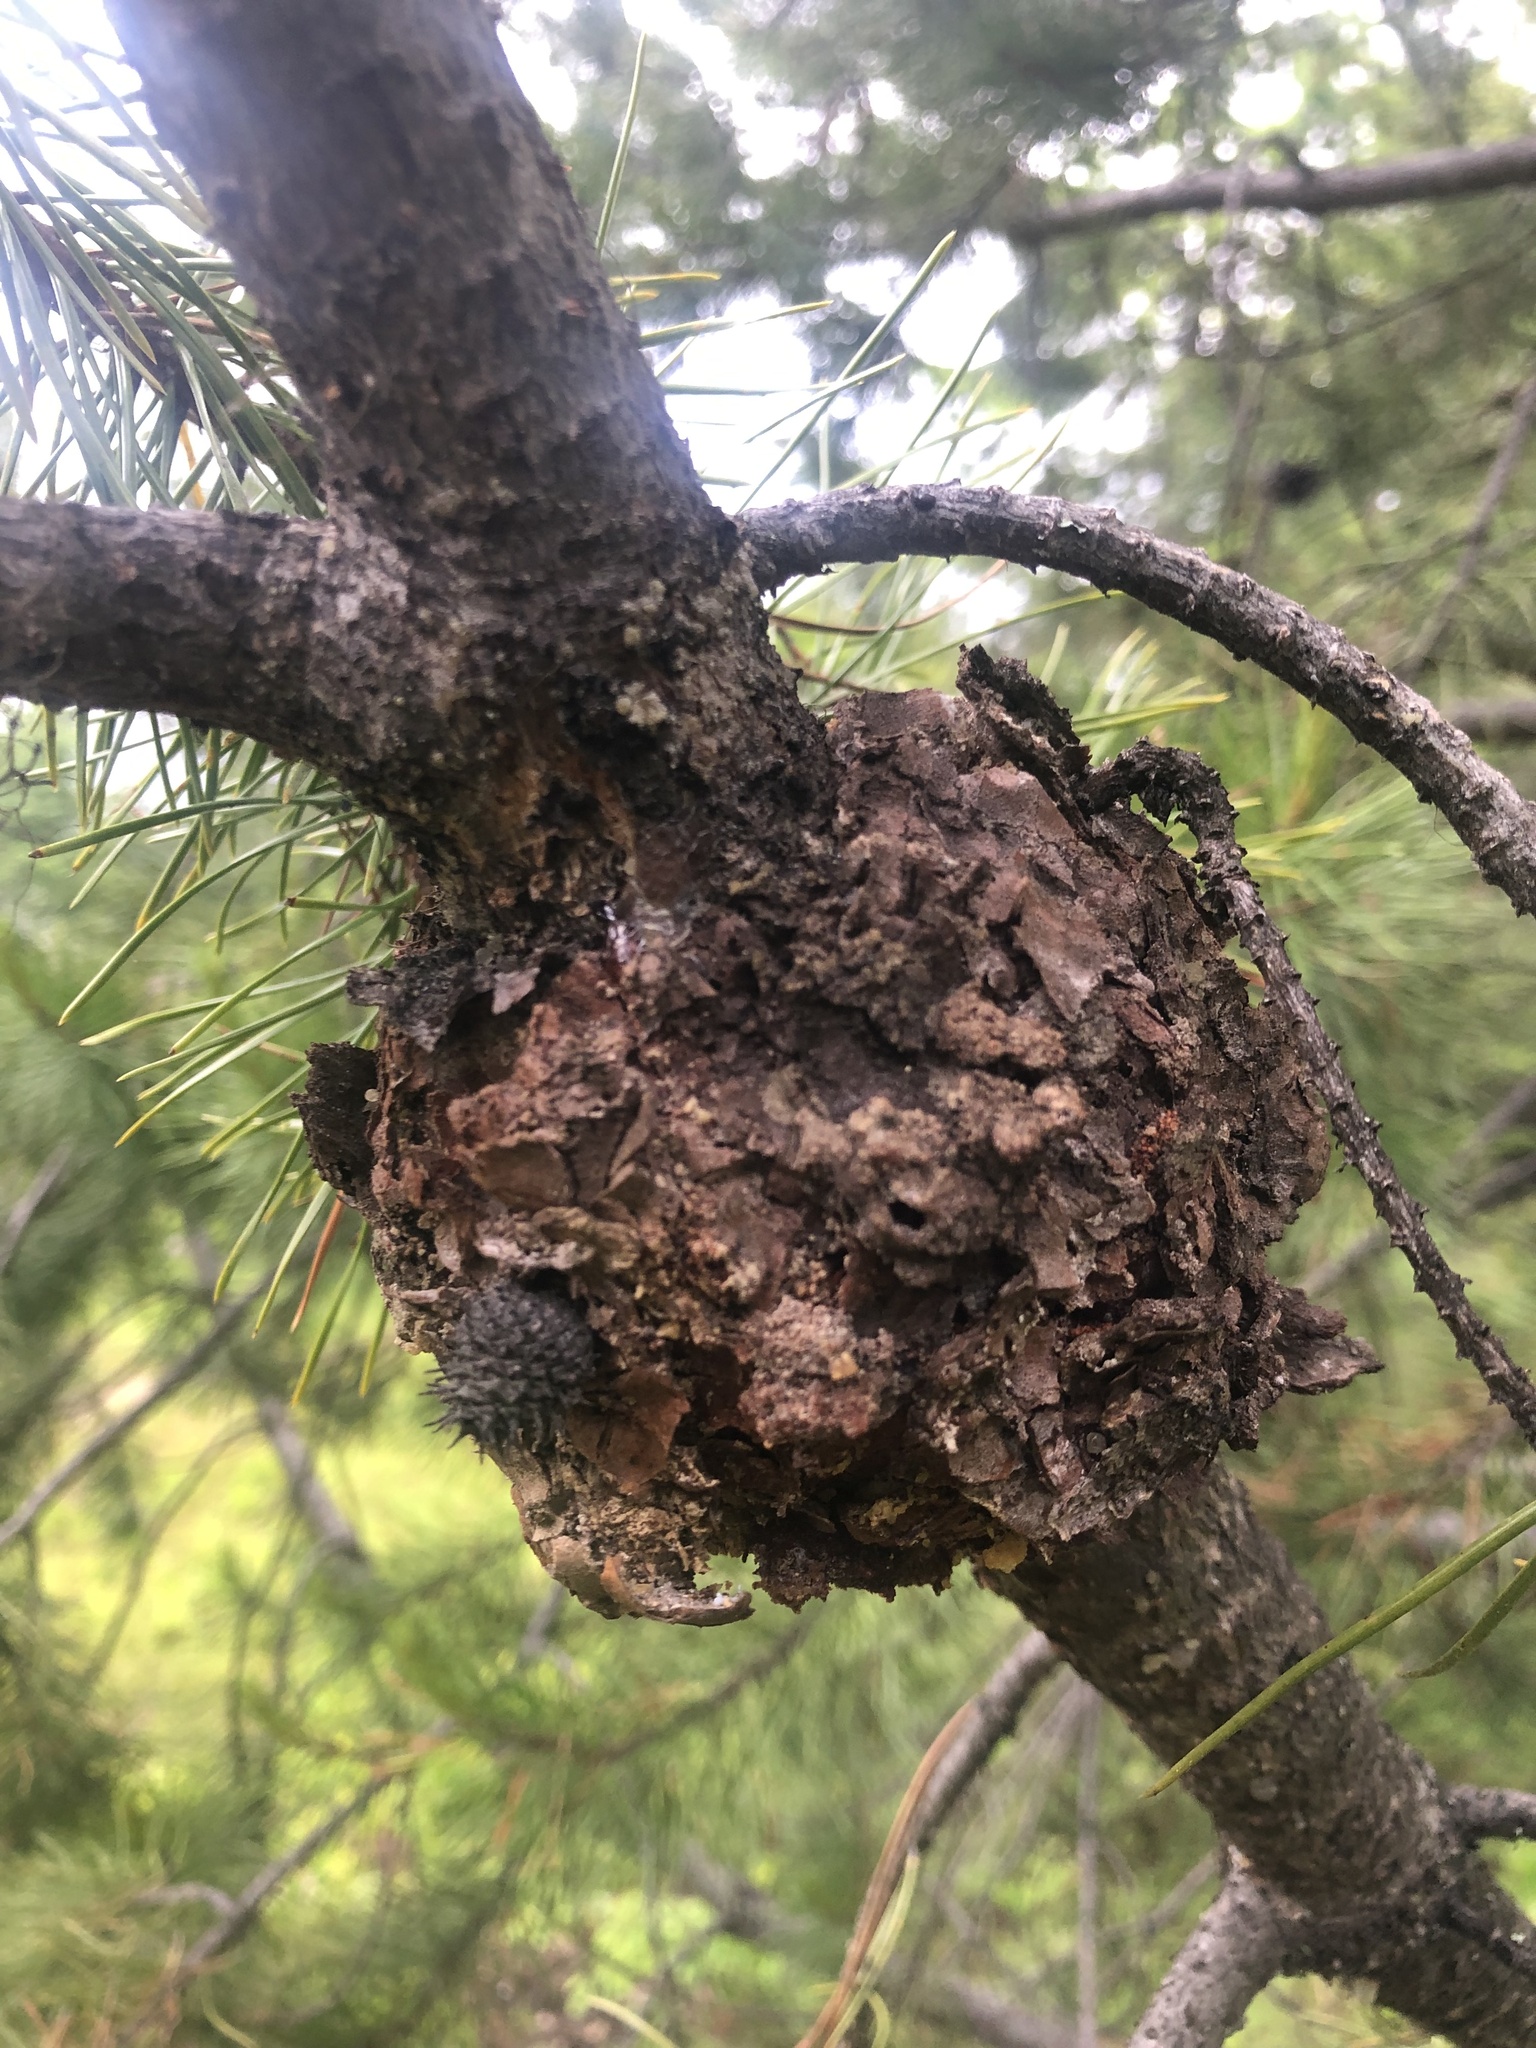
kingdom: Fungi
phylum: Basidiomycota
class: Pucciniomycetes
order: Pucciniales
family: Cronartiaceae
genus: Cronartium
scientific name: Cronartium harknessii
